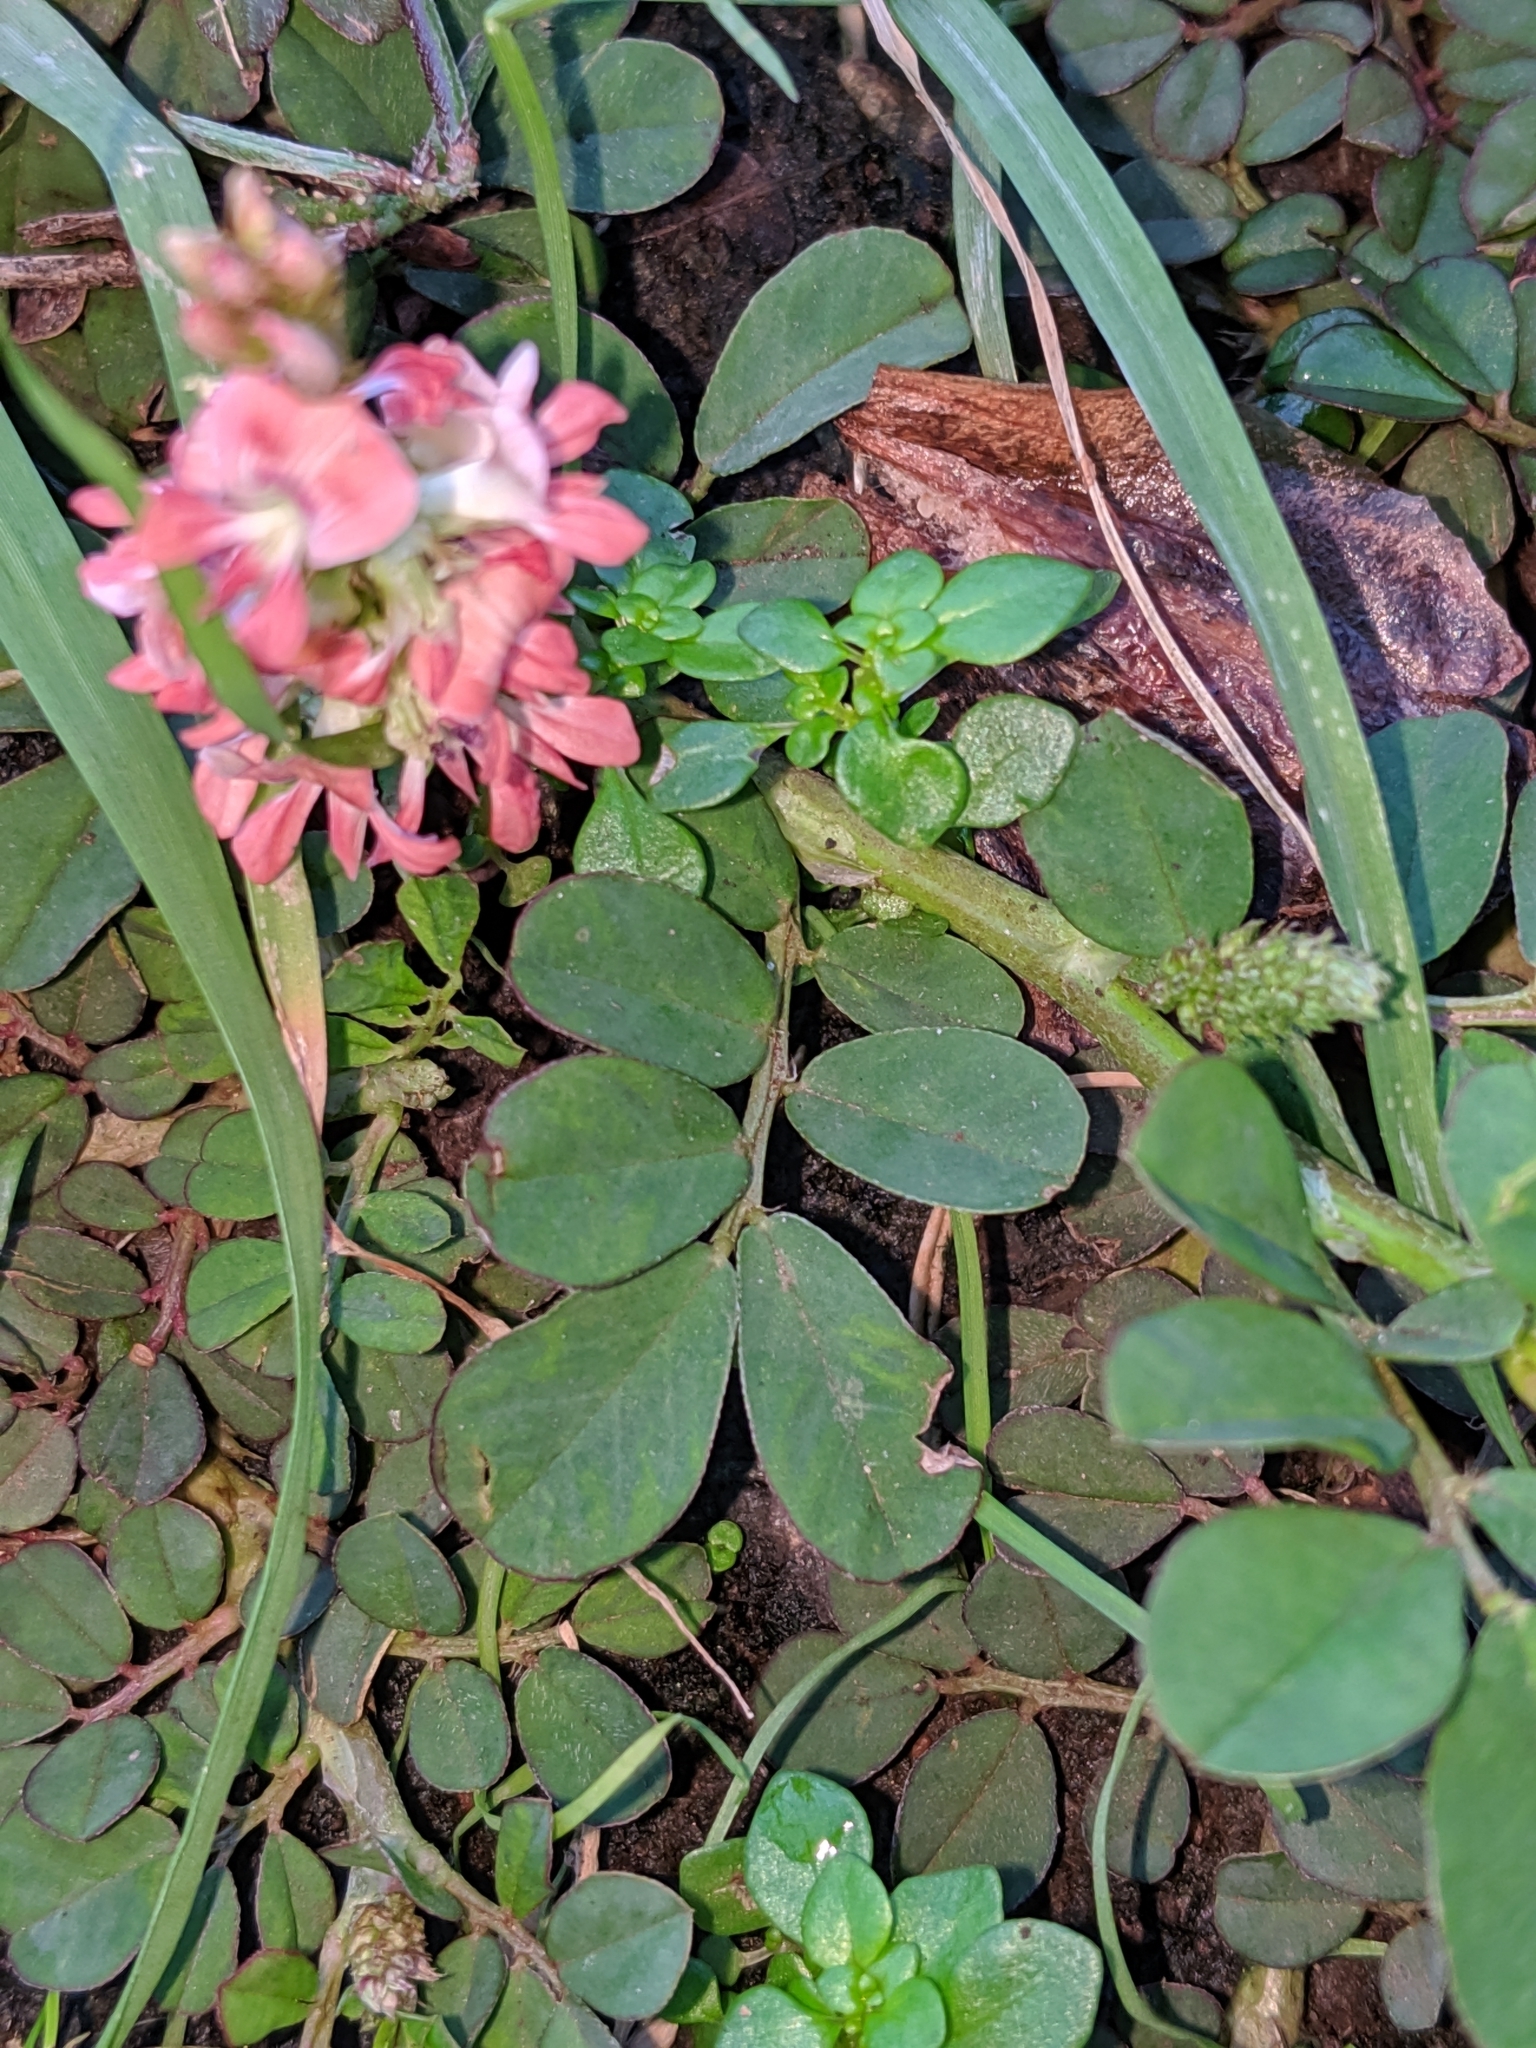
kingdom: Plantae
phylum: Tracheophyta
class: Magnoliopsida
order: Fabales
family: Fabaceae
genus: Indigofera
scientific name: Indigofera spicata
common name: Creeping indigo
